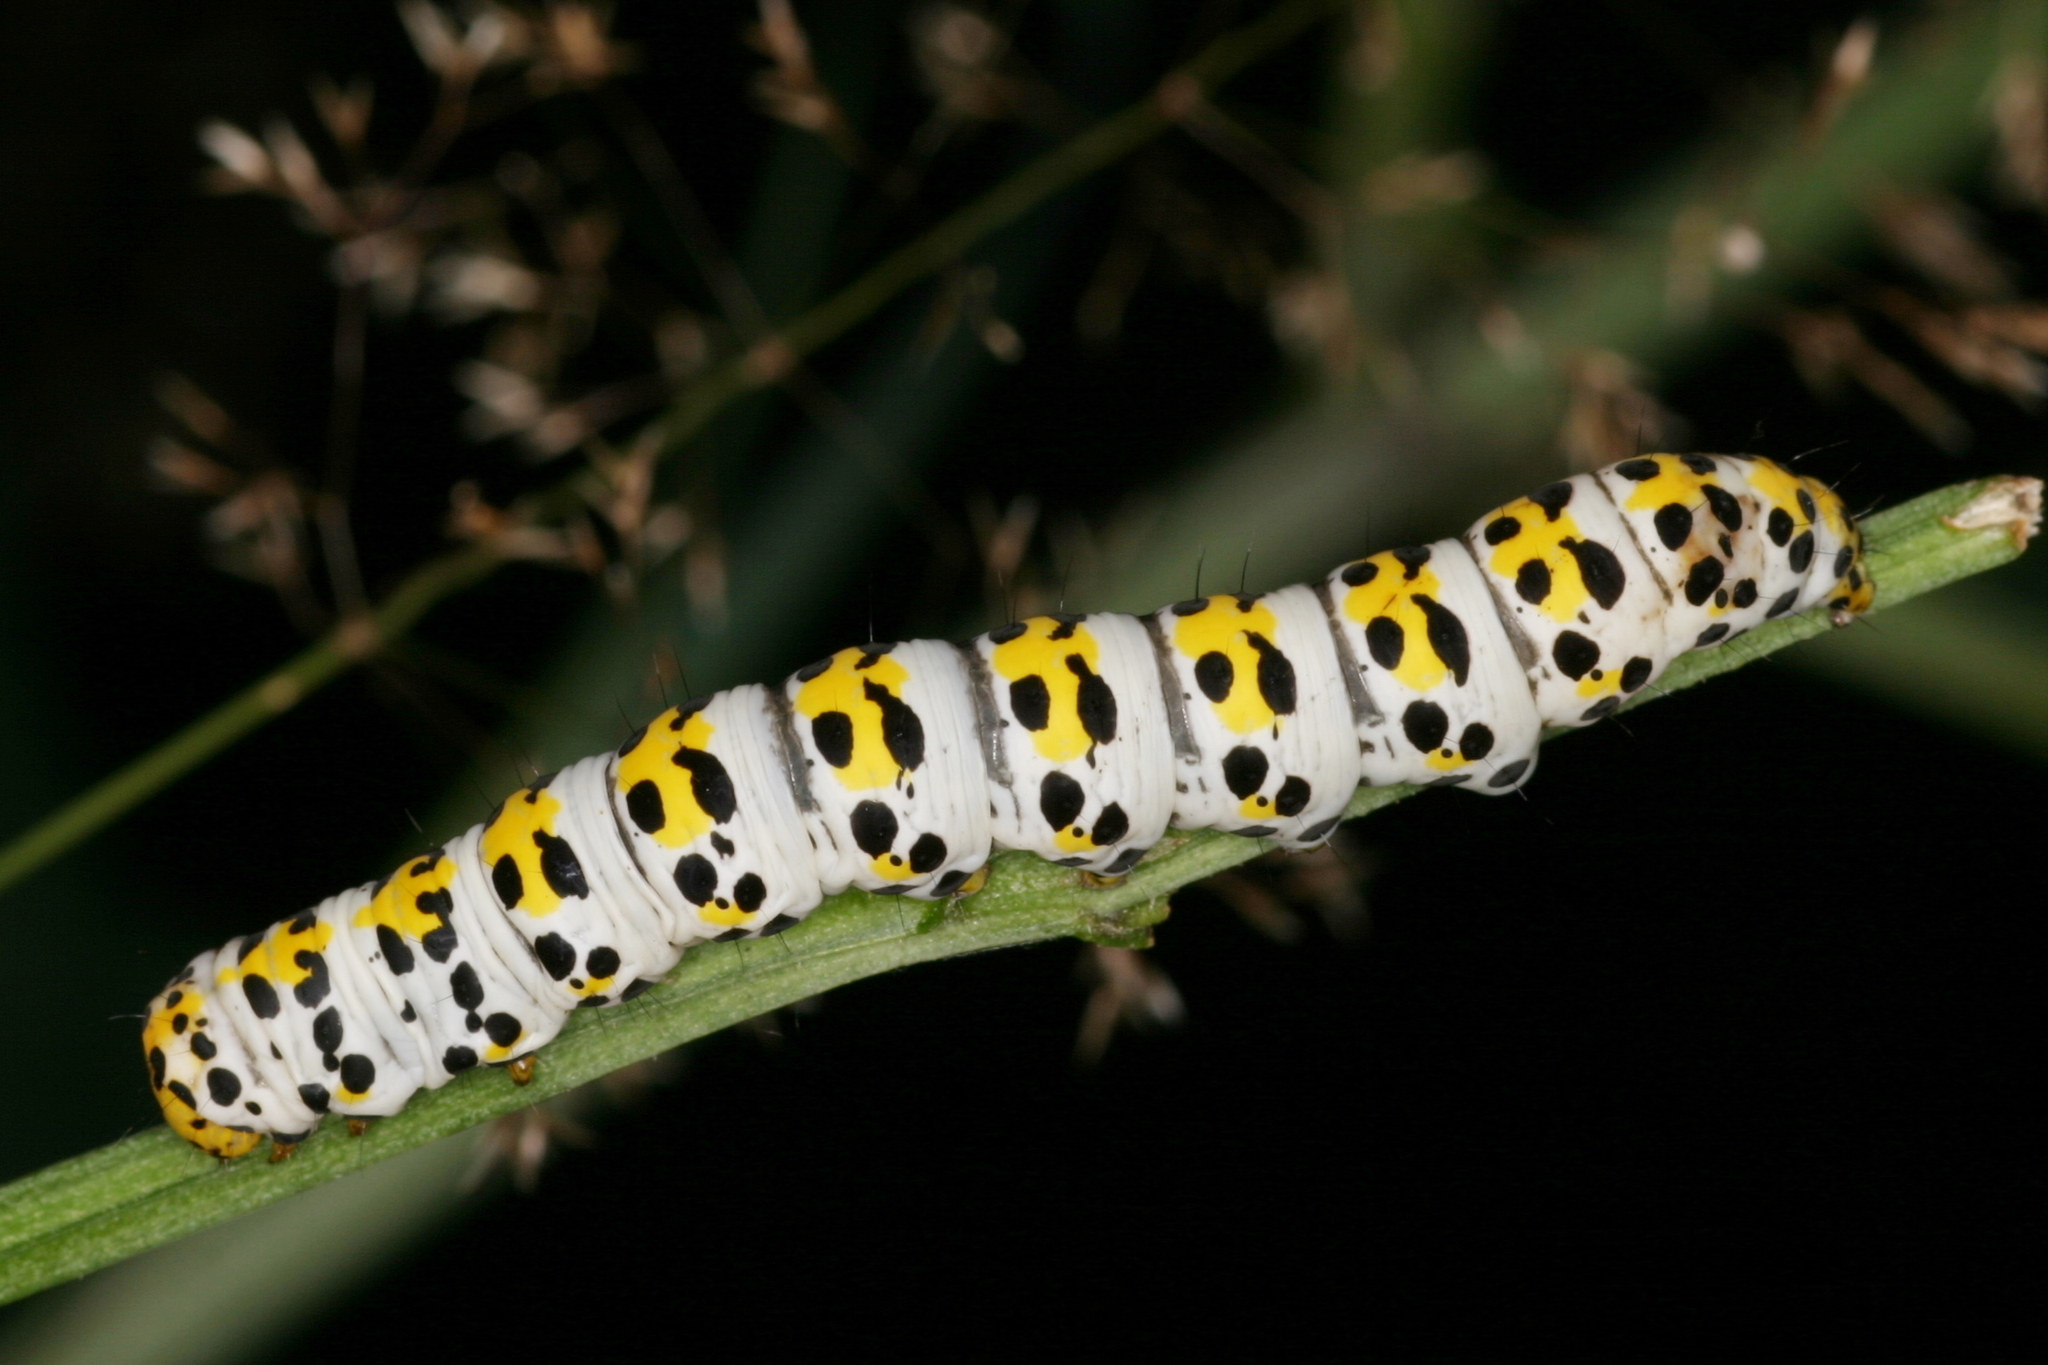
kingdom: Animalia
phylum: Arthropoda
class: Insecta
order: Lepidoptera
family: Noctuidae
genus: Shargacucullia
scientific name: Shargacucullia scrophulariae
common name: Water betony
